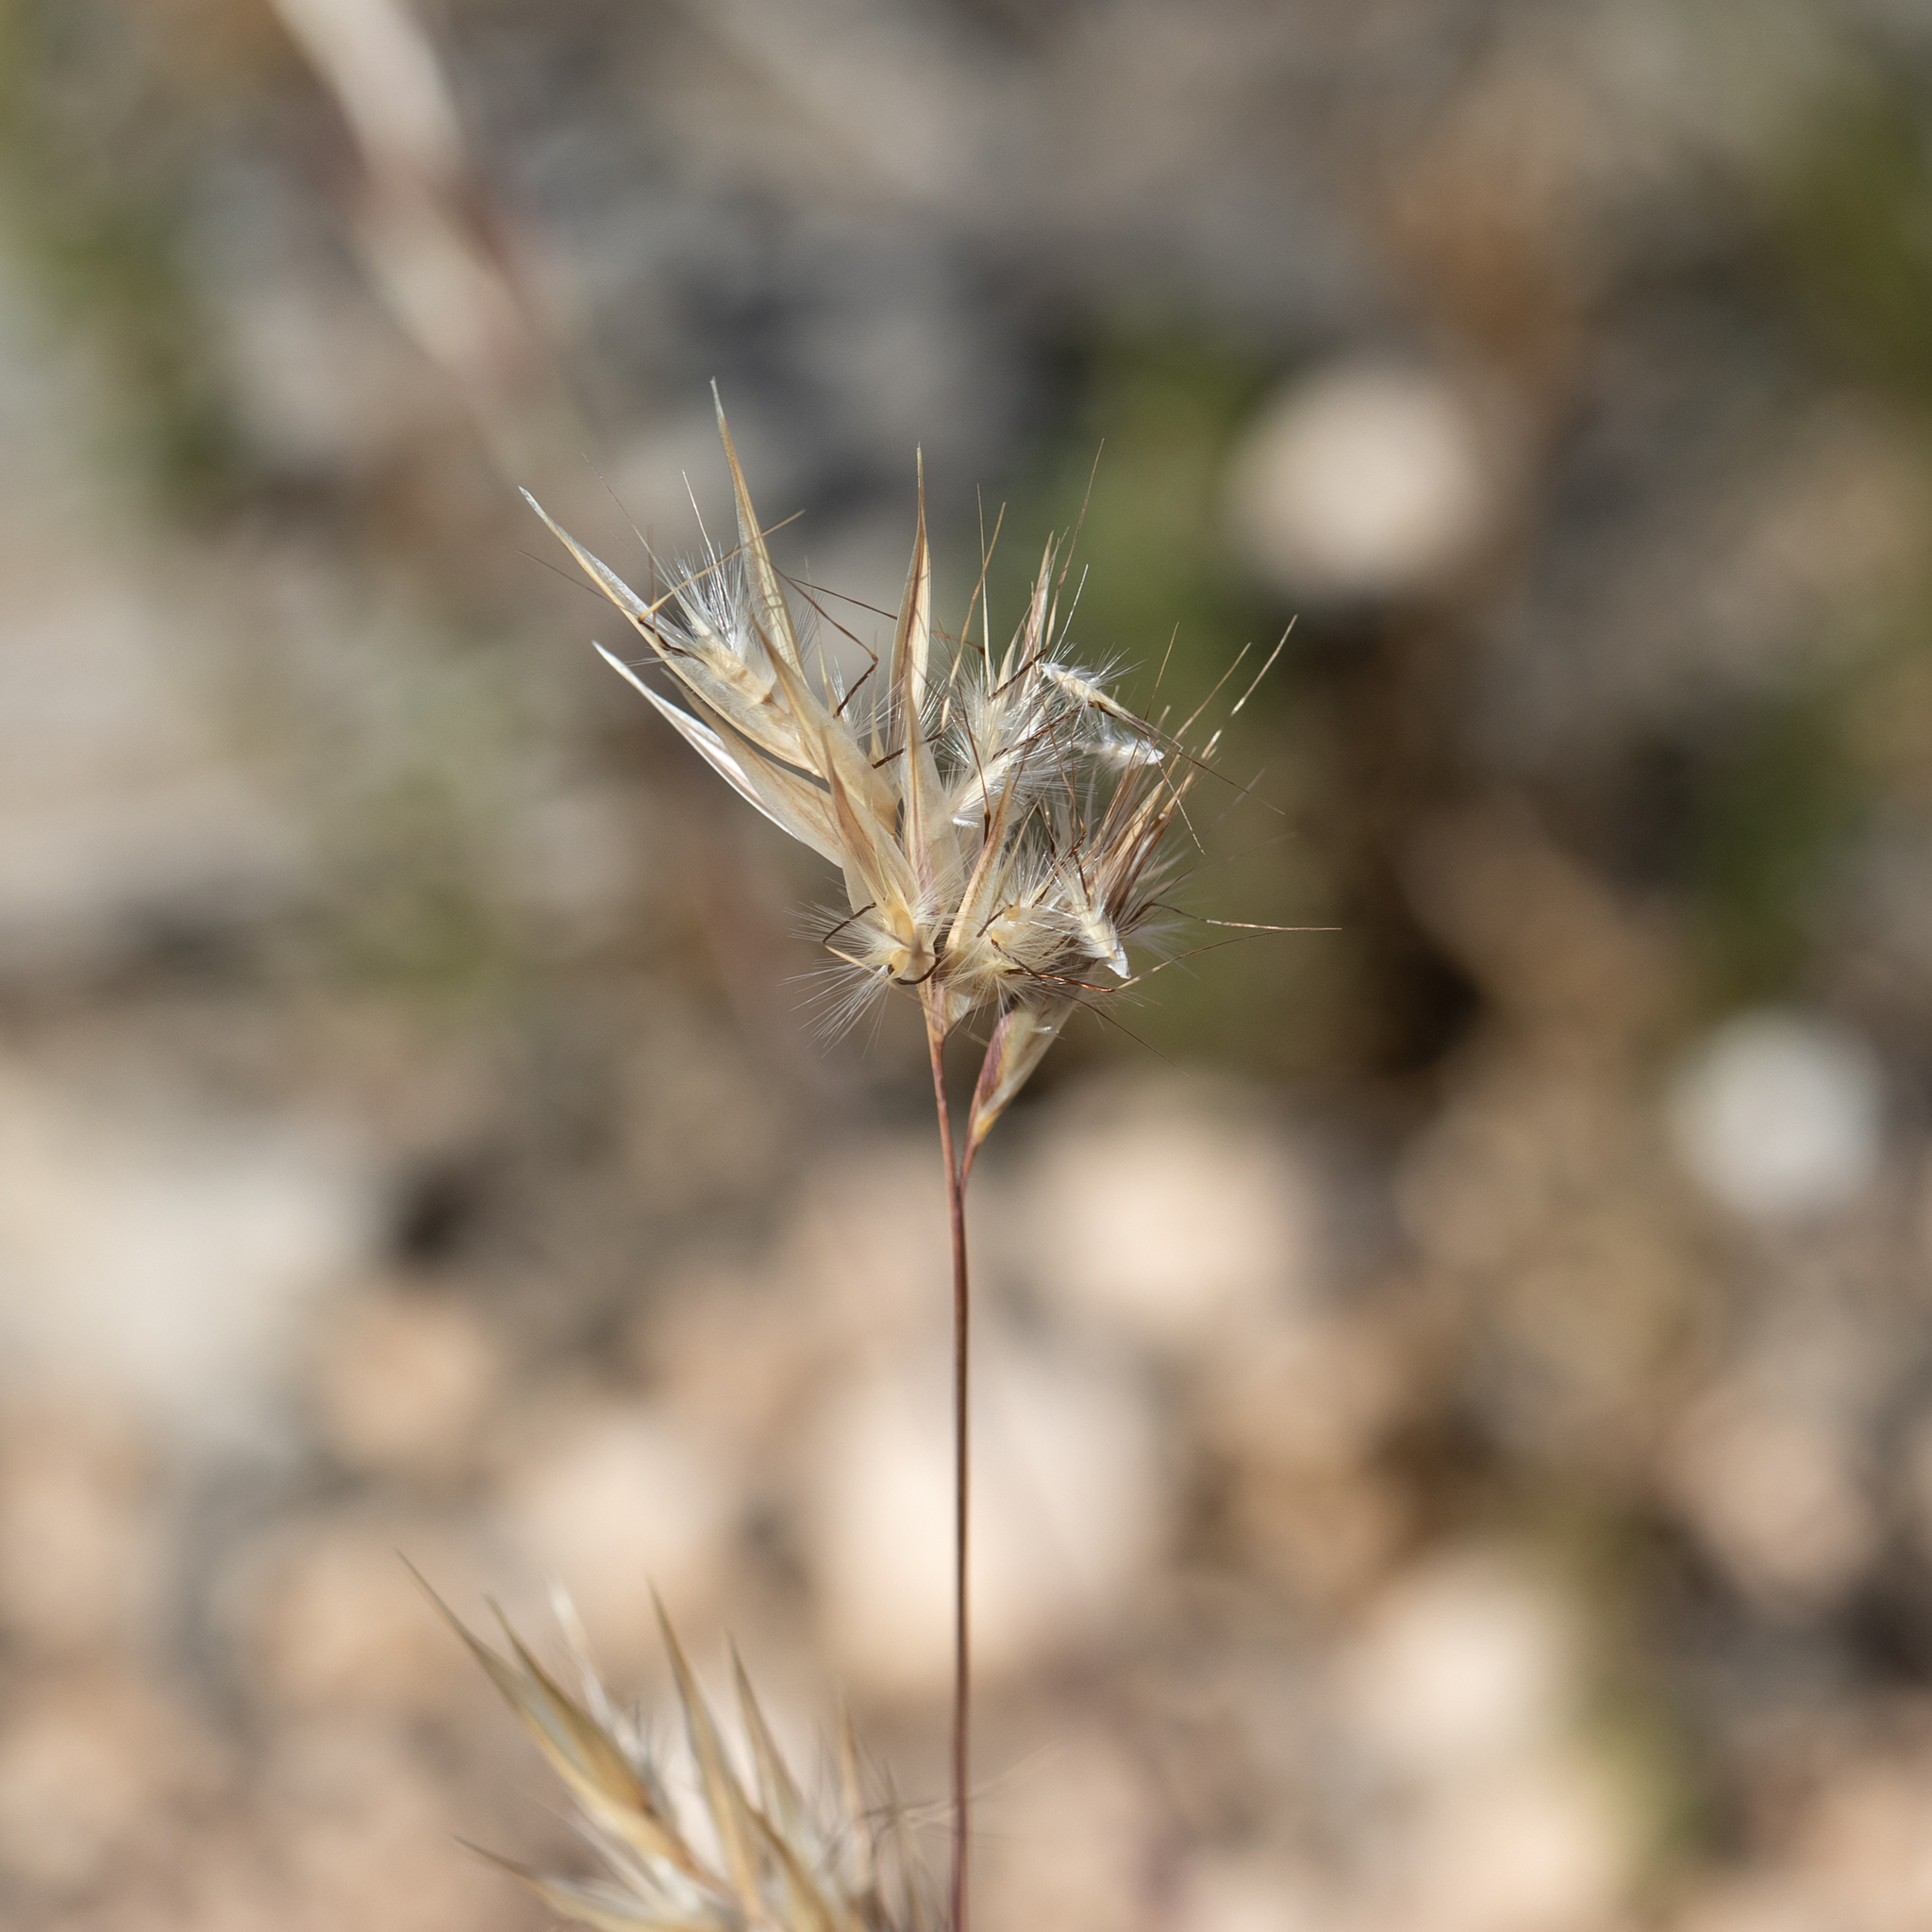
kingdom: Plantae
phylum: Tracheophyta
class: Liliopsida
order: Poales
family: Poaceae
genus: Rytidosperma
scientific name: Rytidosperma caespitosum
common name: Tufted wallaby grass
